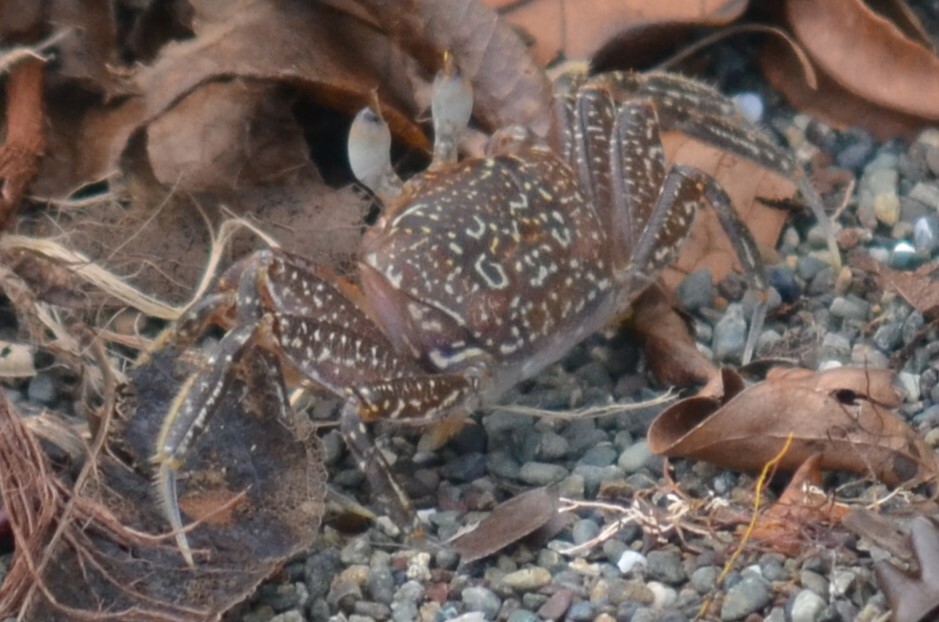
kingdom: Animalia
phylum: Arthropoda
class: Malacostraca
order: Decapoda
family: Ocypodidae
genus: Ocypode
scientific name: Ocypode gaudichaudii
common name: Pacific ghost crab
